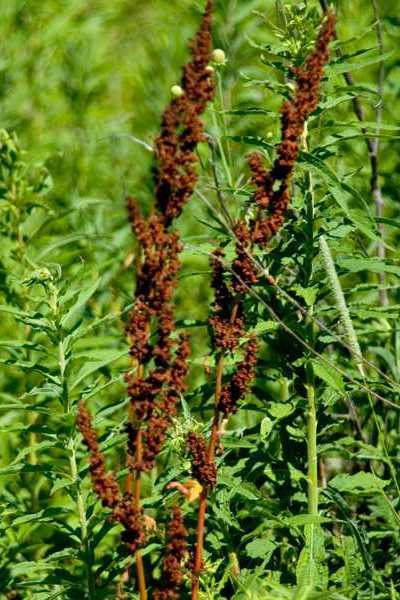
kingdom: Plantae
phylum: Tracheophyta
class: Magnoliopsida
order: Caryophyllales
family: Polygonaceae
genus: Rumex
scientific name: Rumex crispus
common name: Curled dock
